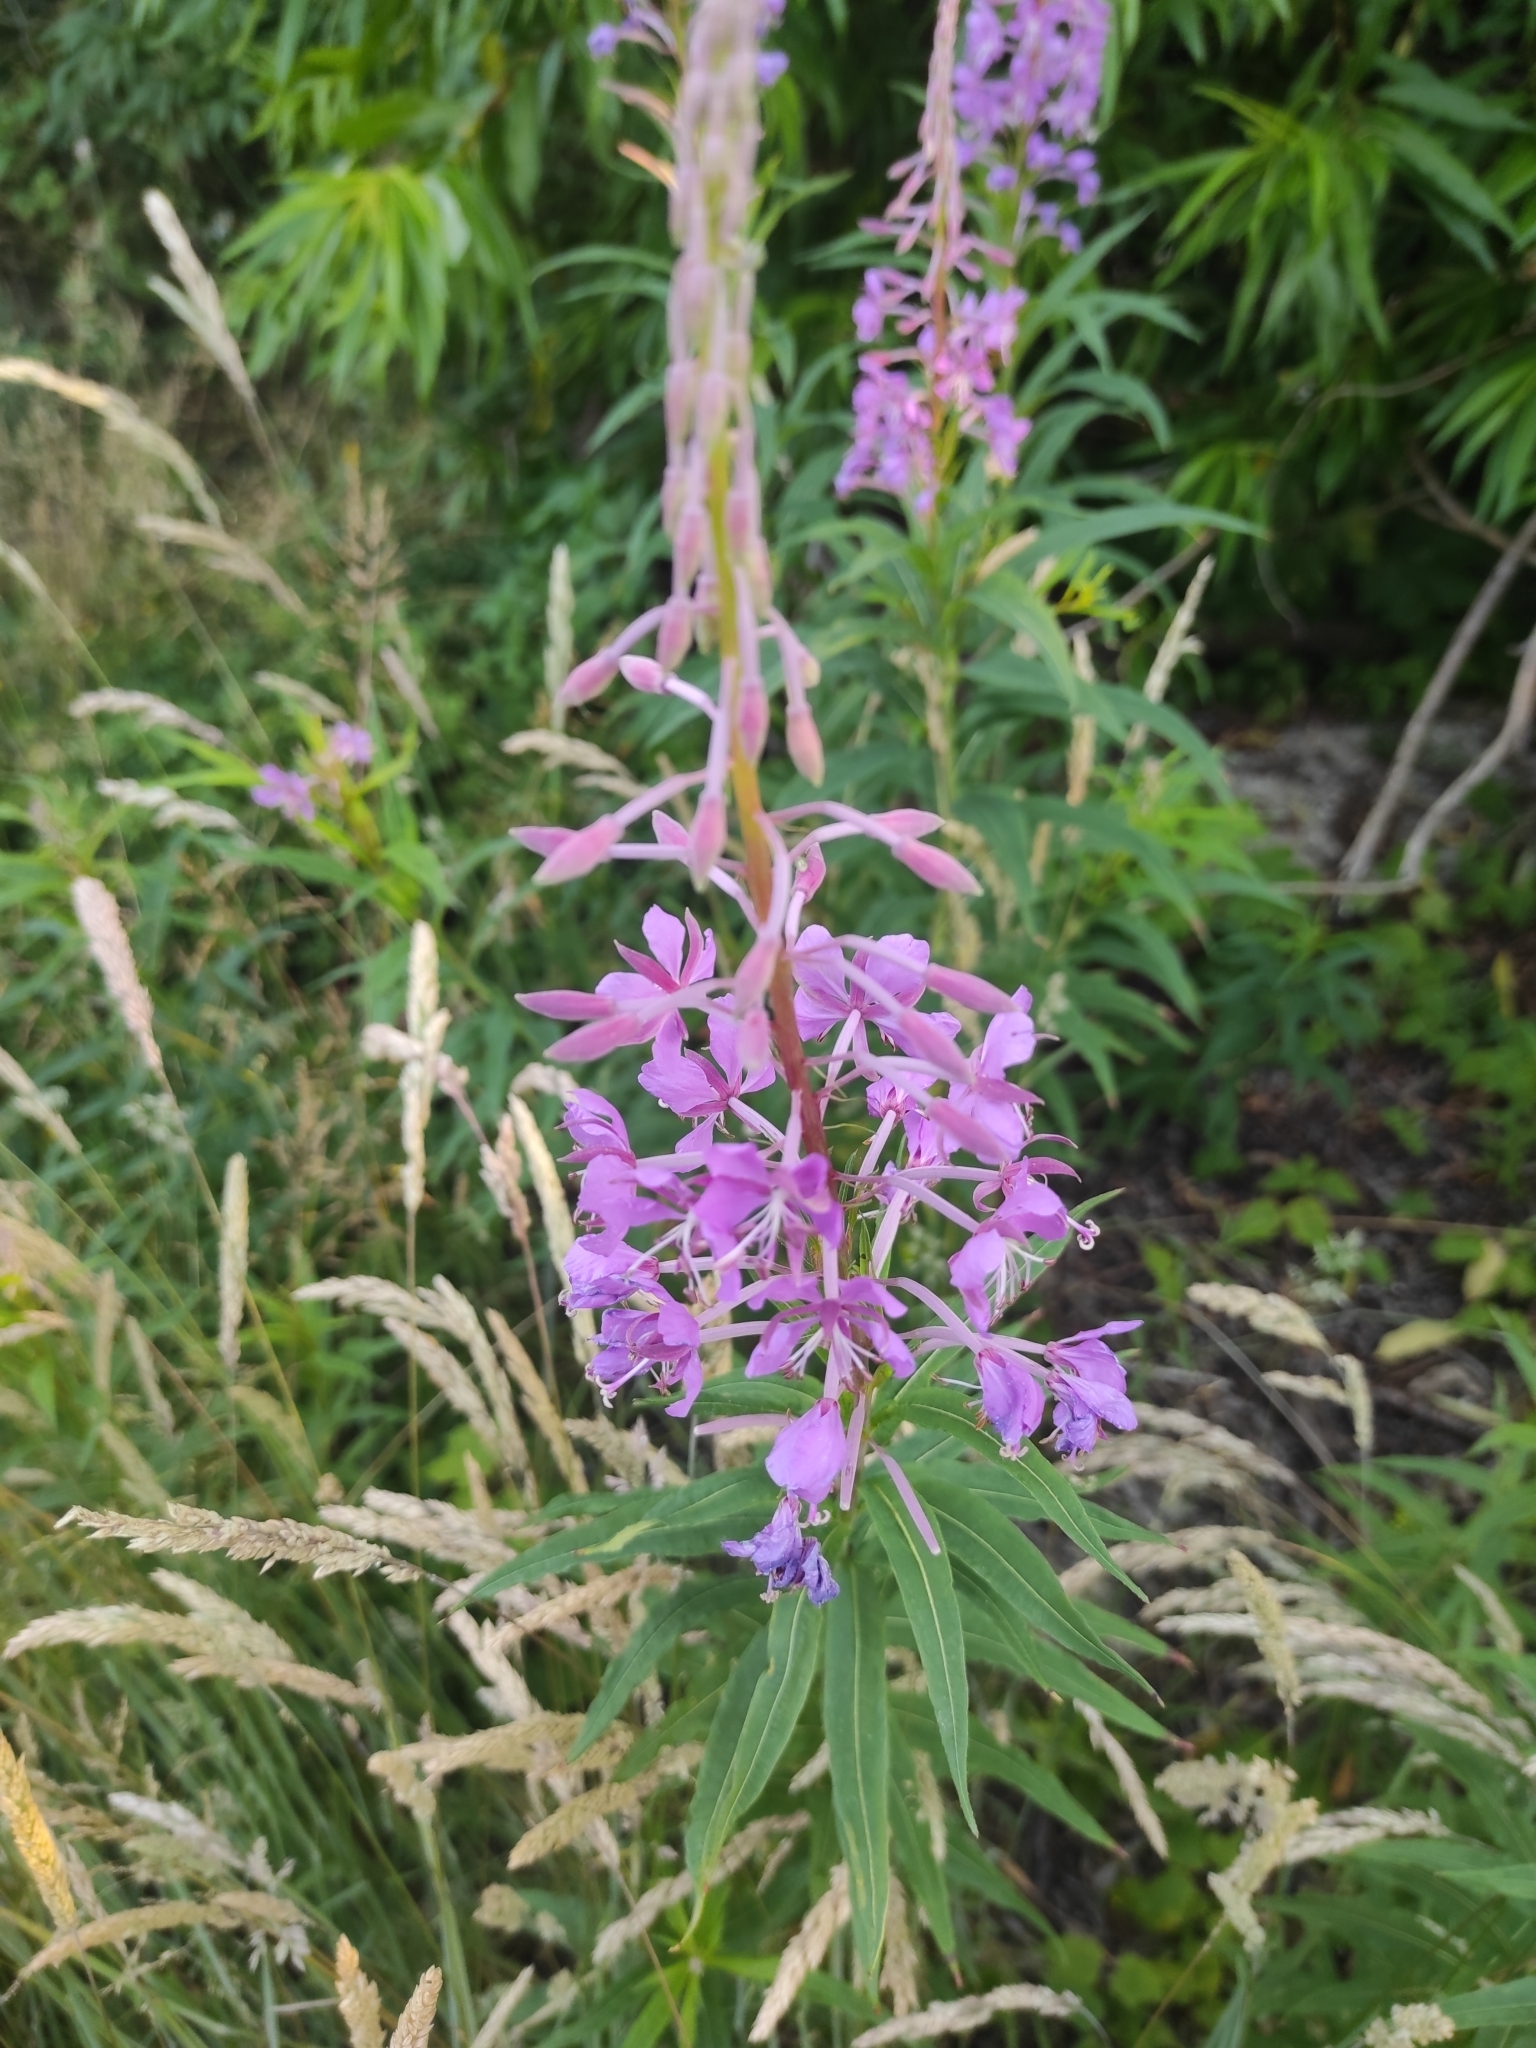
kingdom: Plantae
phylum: Tracheophyta
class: Magnoliopsida
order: Myrtales
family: Onagraceae
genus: Chamaenerion
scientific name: Chamaenerion angustifolium
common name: Fireweed
